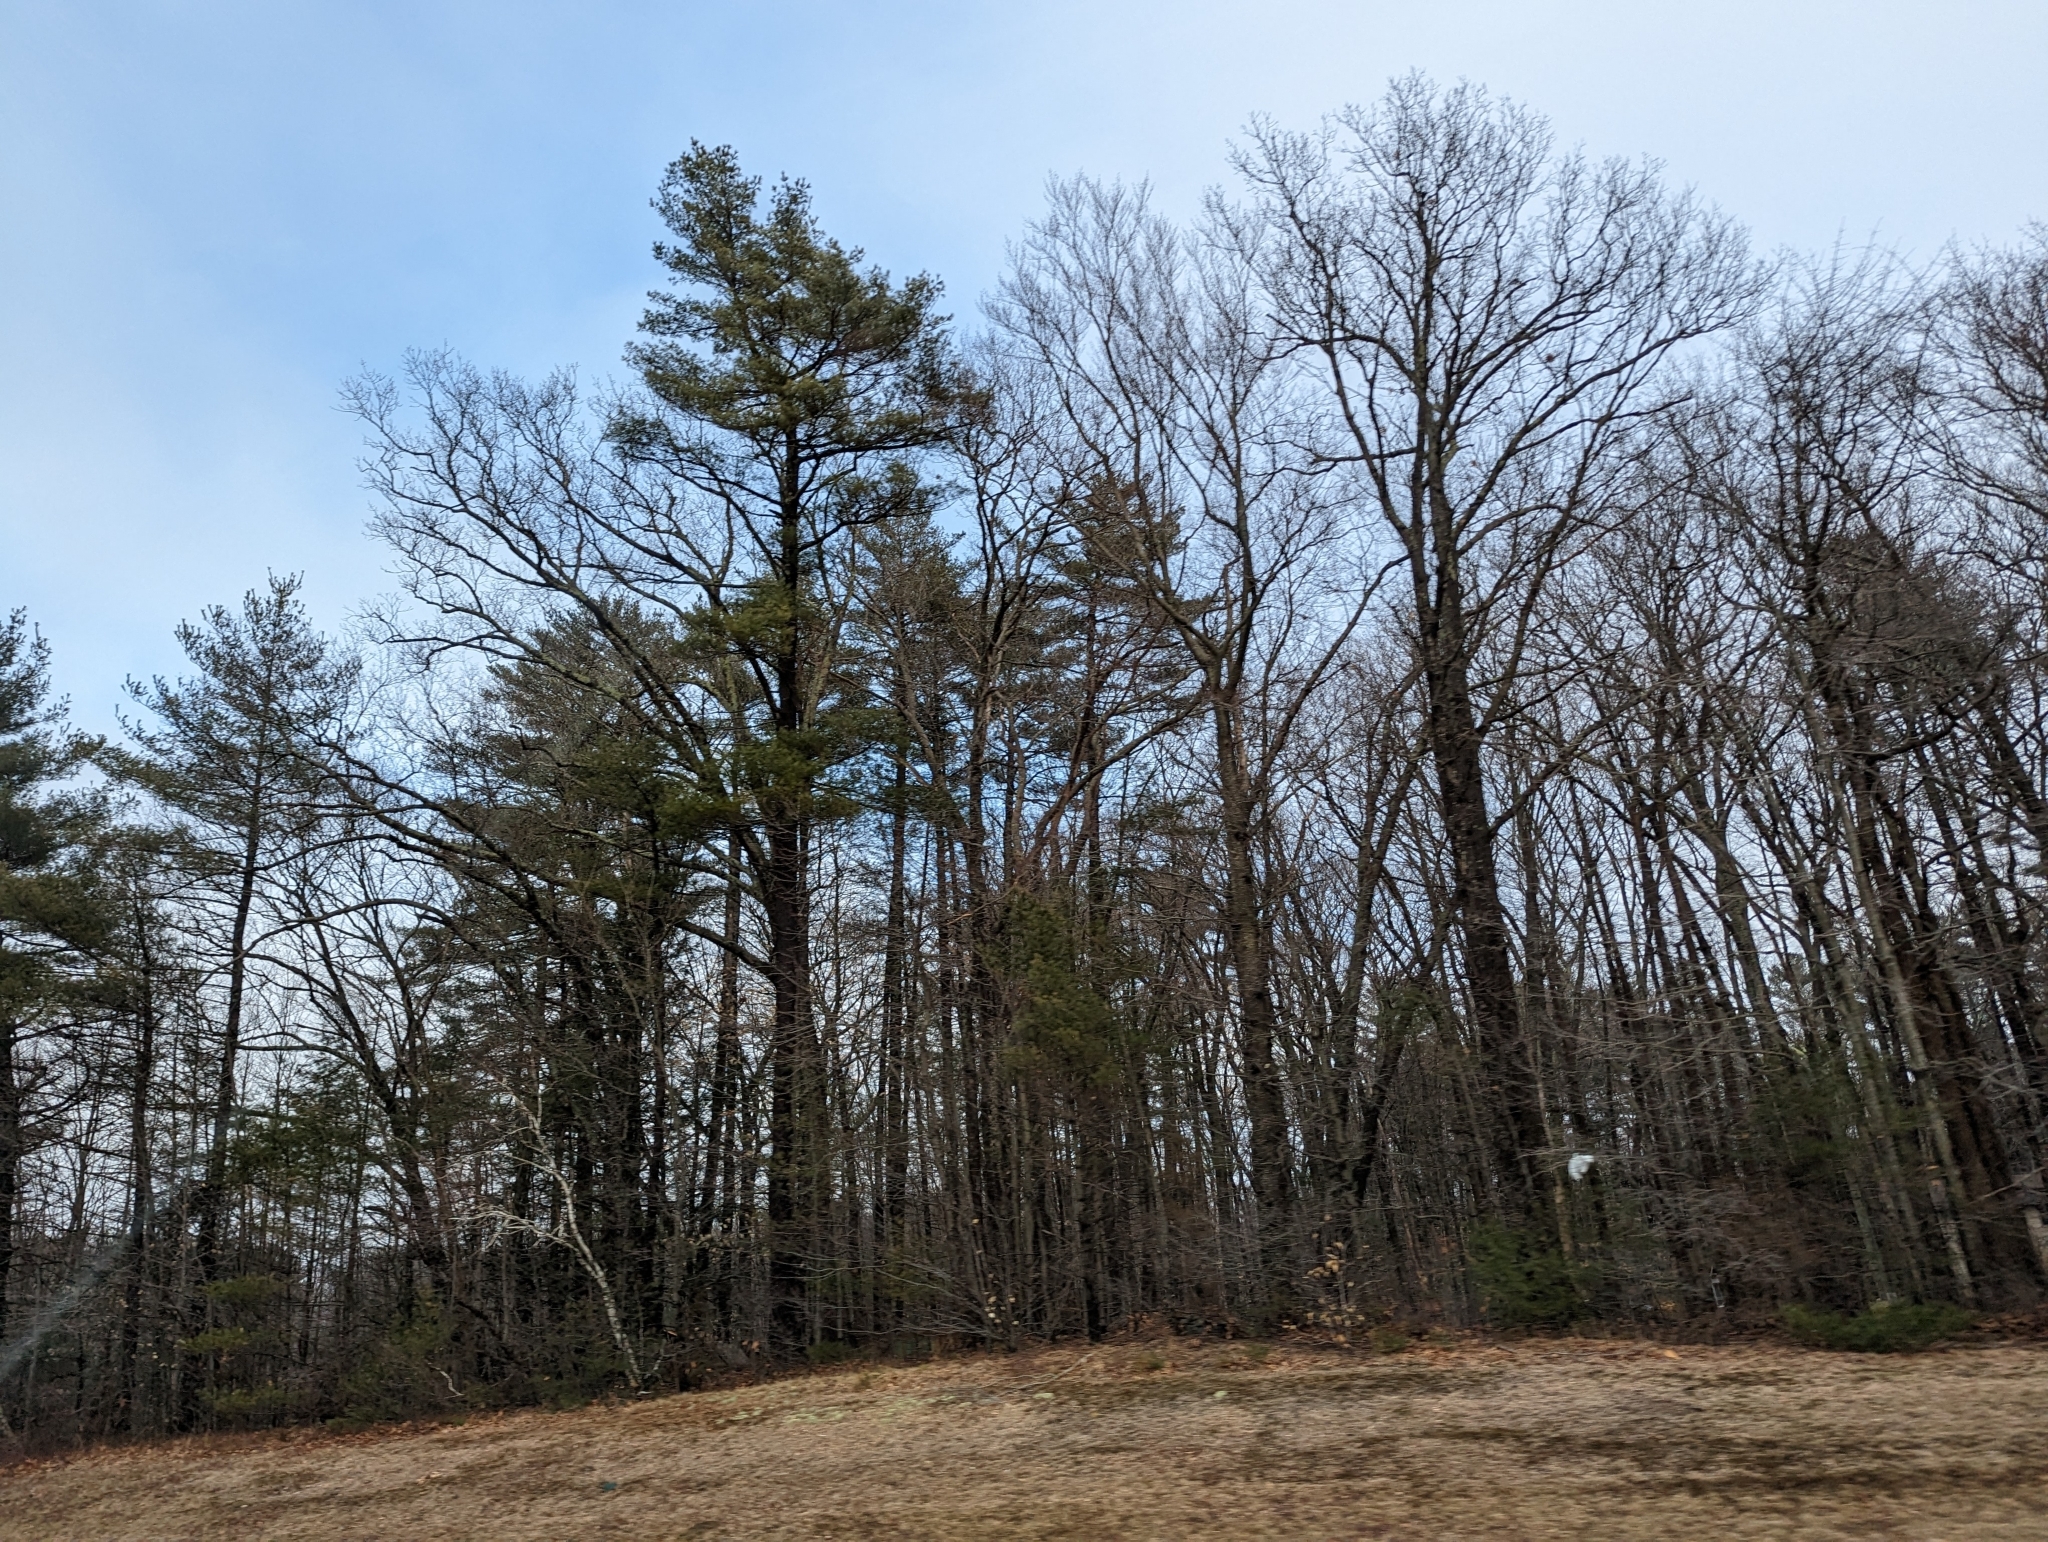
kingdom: Plantae
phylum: Tracheophyta
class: Pinopsida
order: Pinales
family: Pinaceae
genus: Pinus
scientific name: Pinus strobus
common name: Weymouth pine
